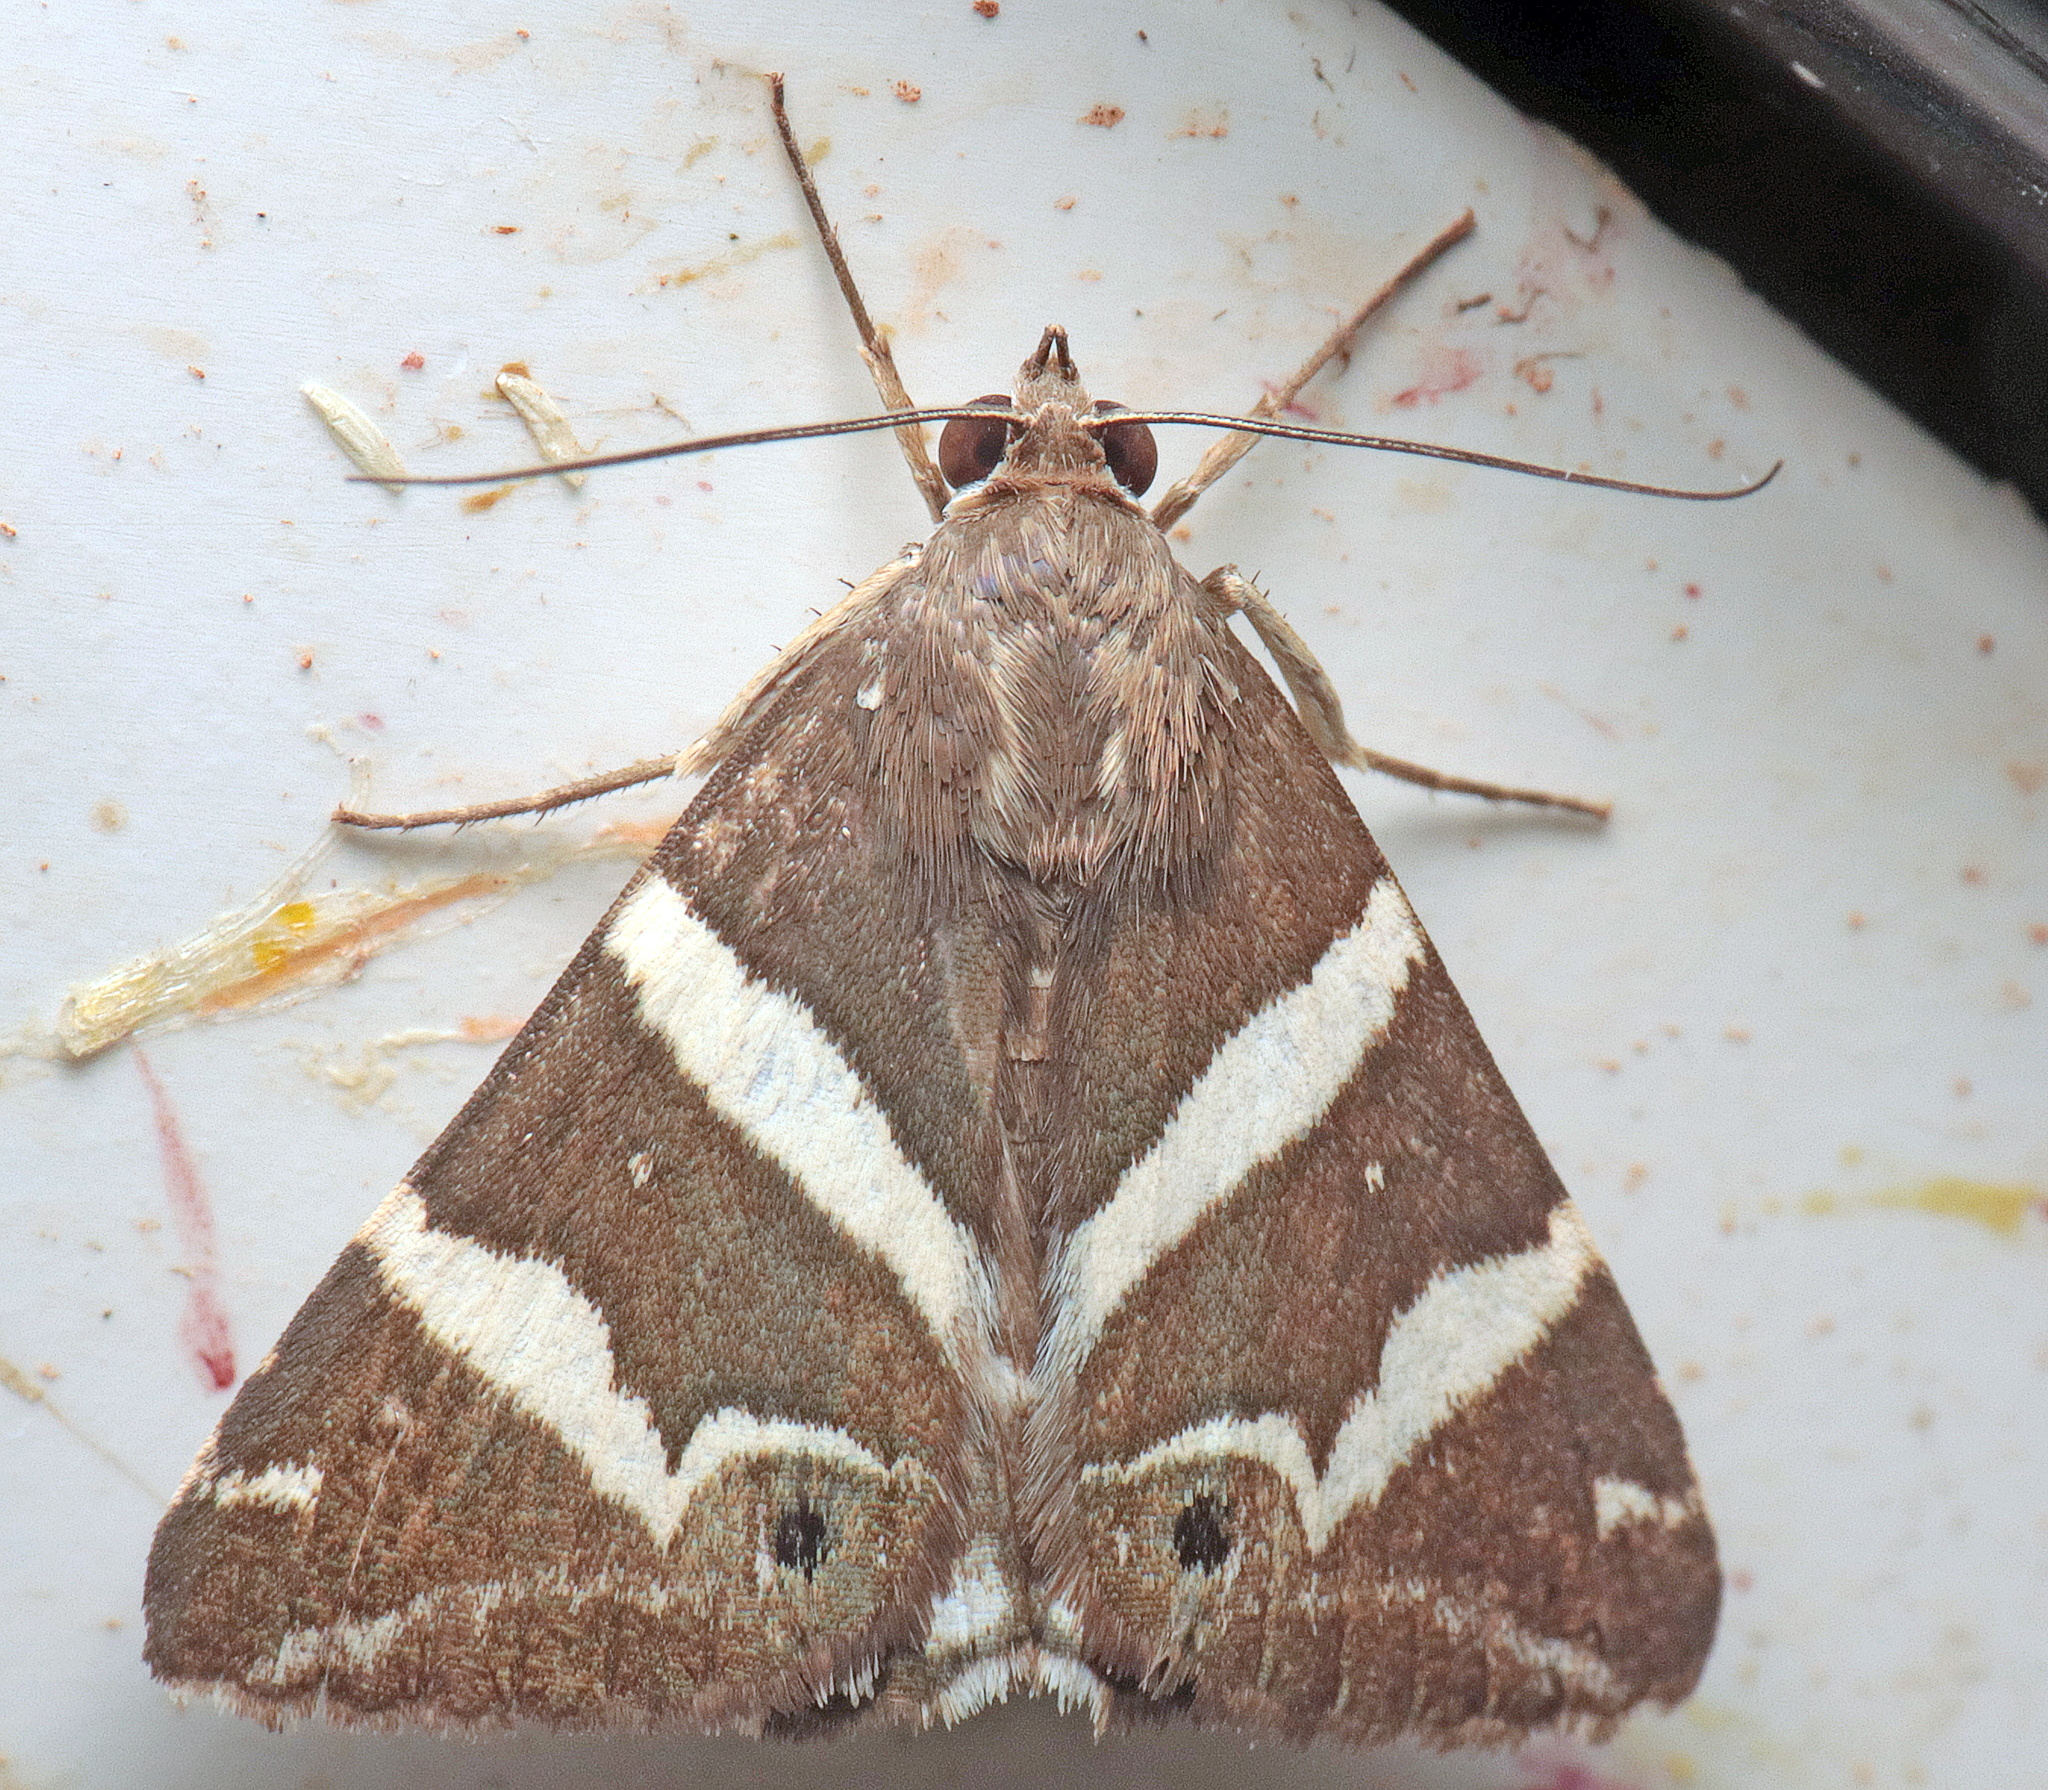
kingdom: Animalia
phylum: Arthropoda
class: Insecta
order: Lepidoptera
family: Erebidae
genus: Grammodes
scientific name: Grammodes pulcherrima
